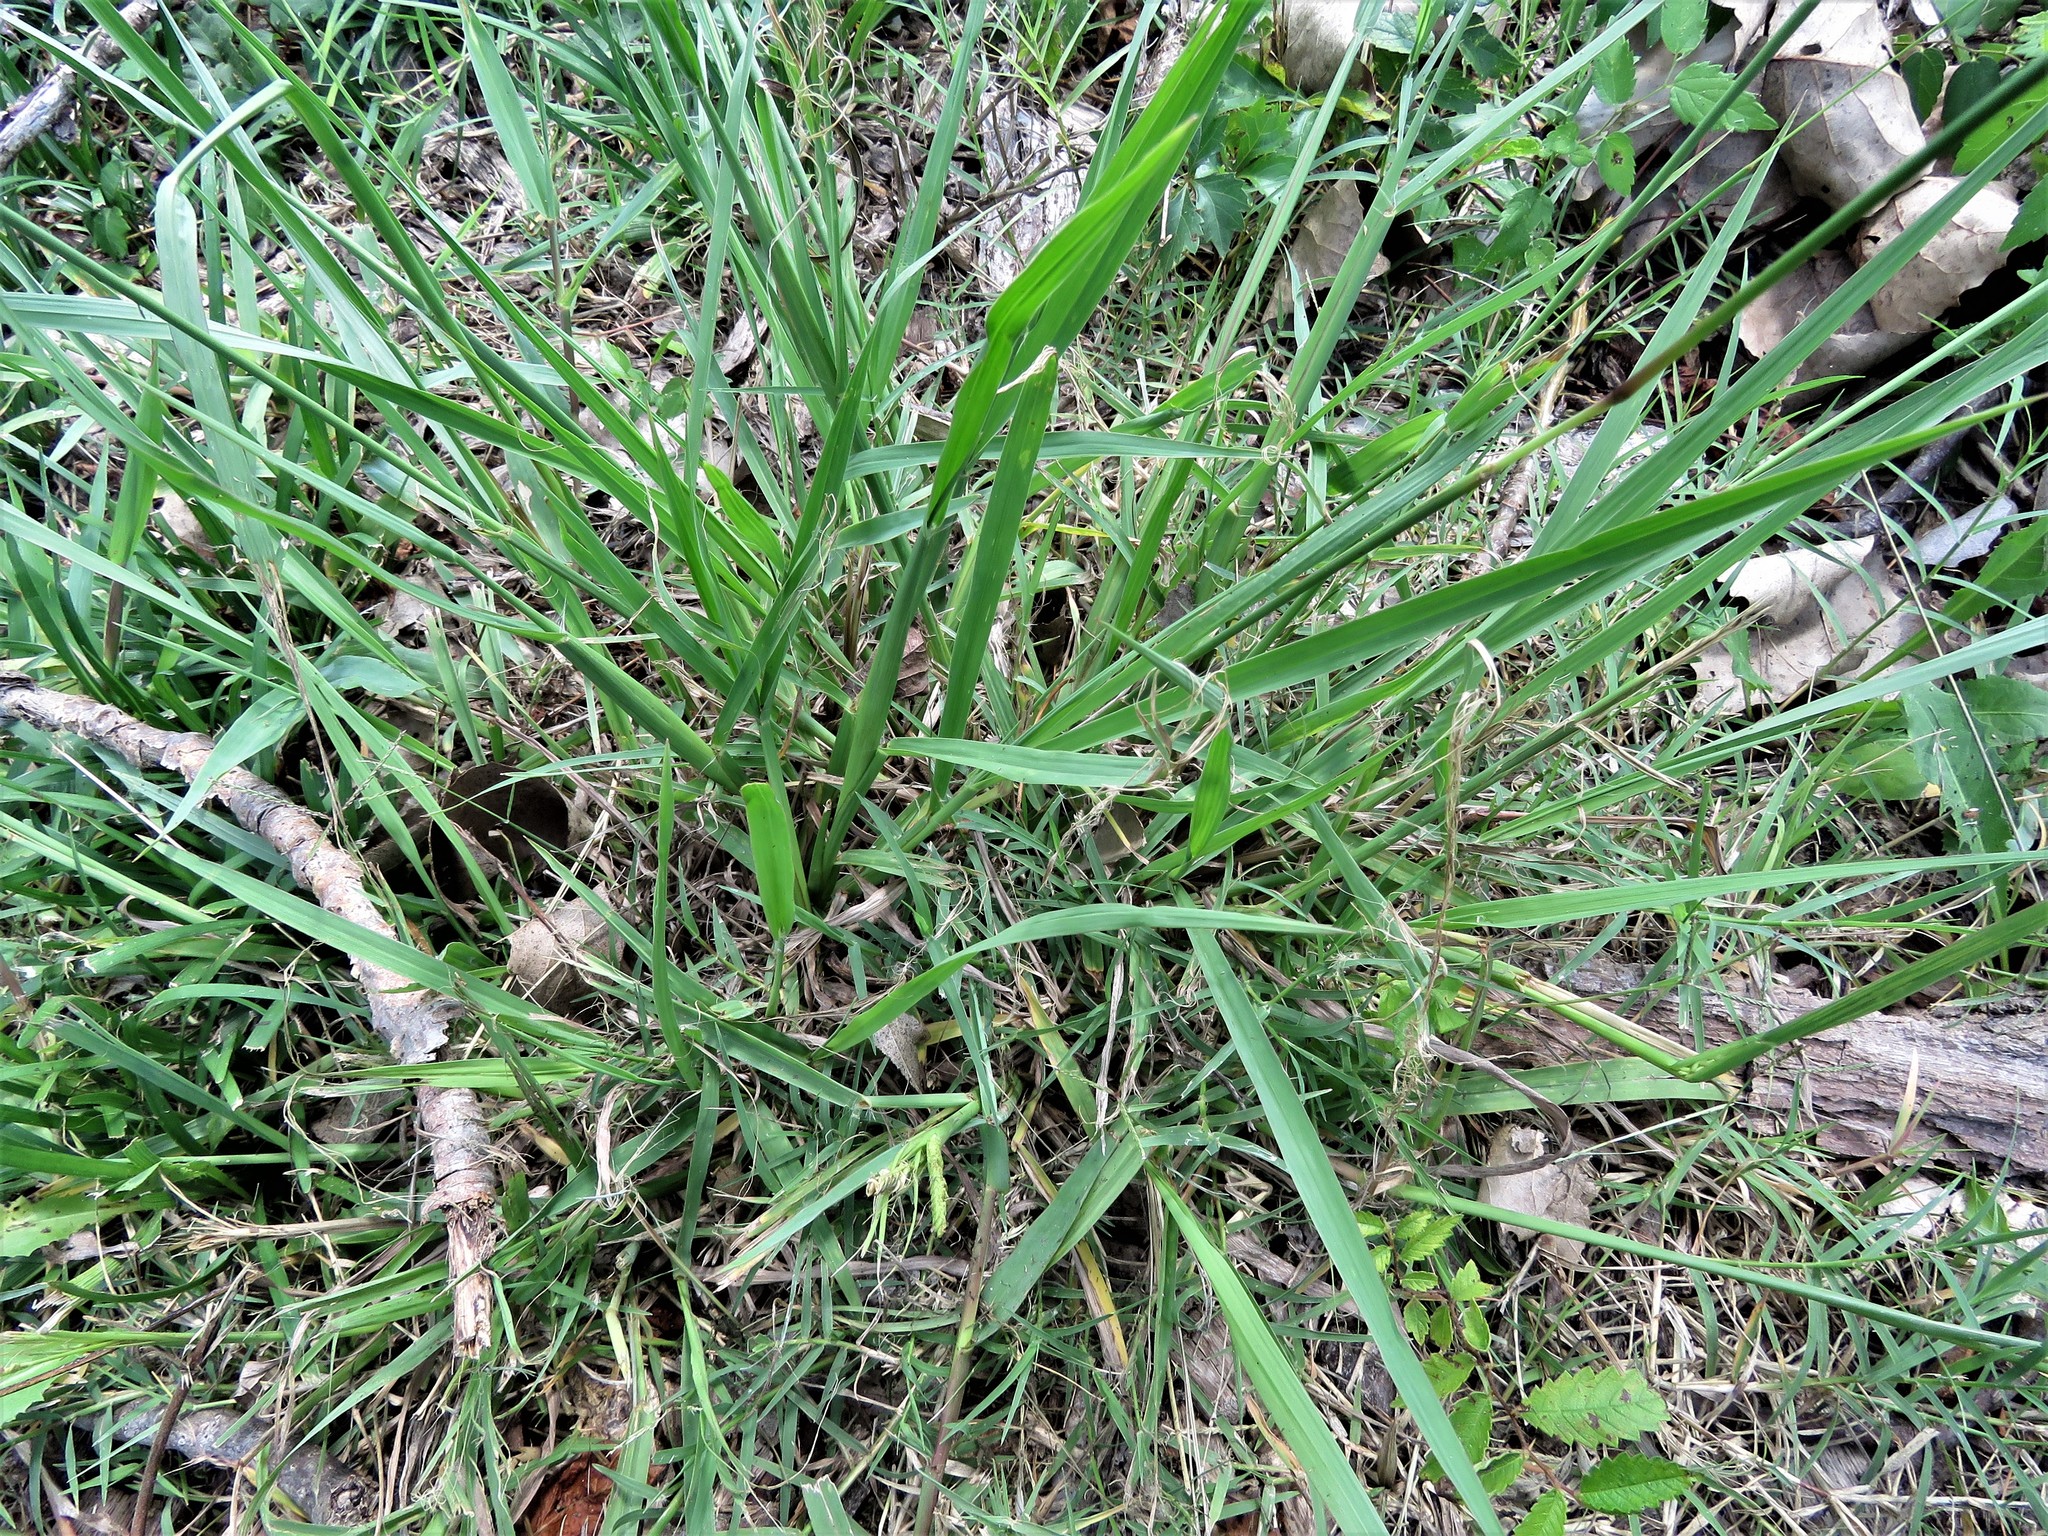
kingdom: Plantae
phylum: Tracheophyta
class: Liliopsida
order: Poales
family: Poaceae
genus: Paspalum
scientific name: Paspalum dilatatum
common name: Dallisgrass
